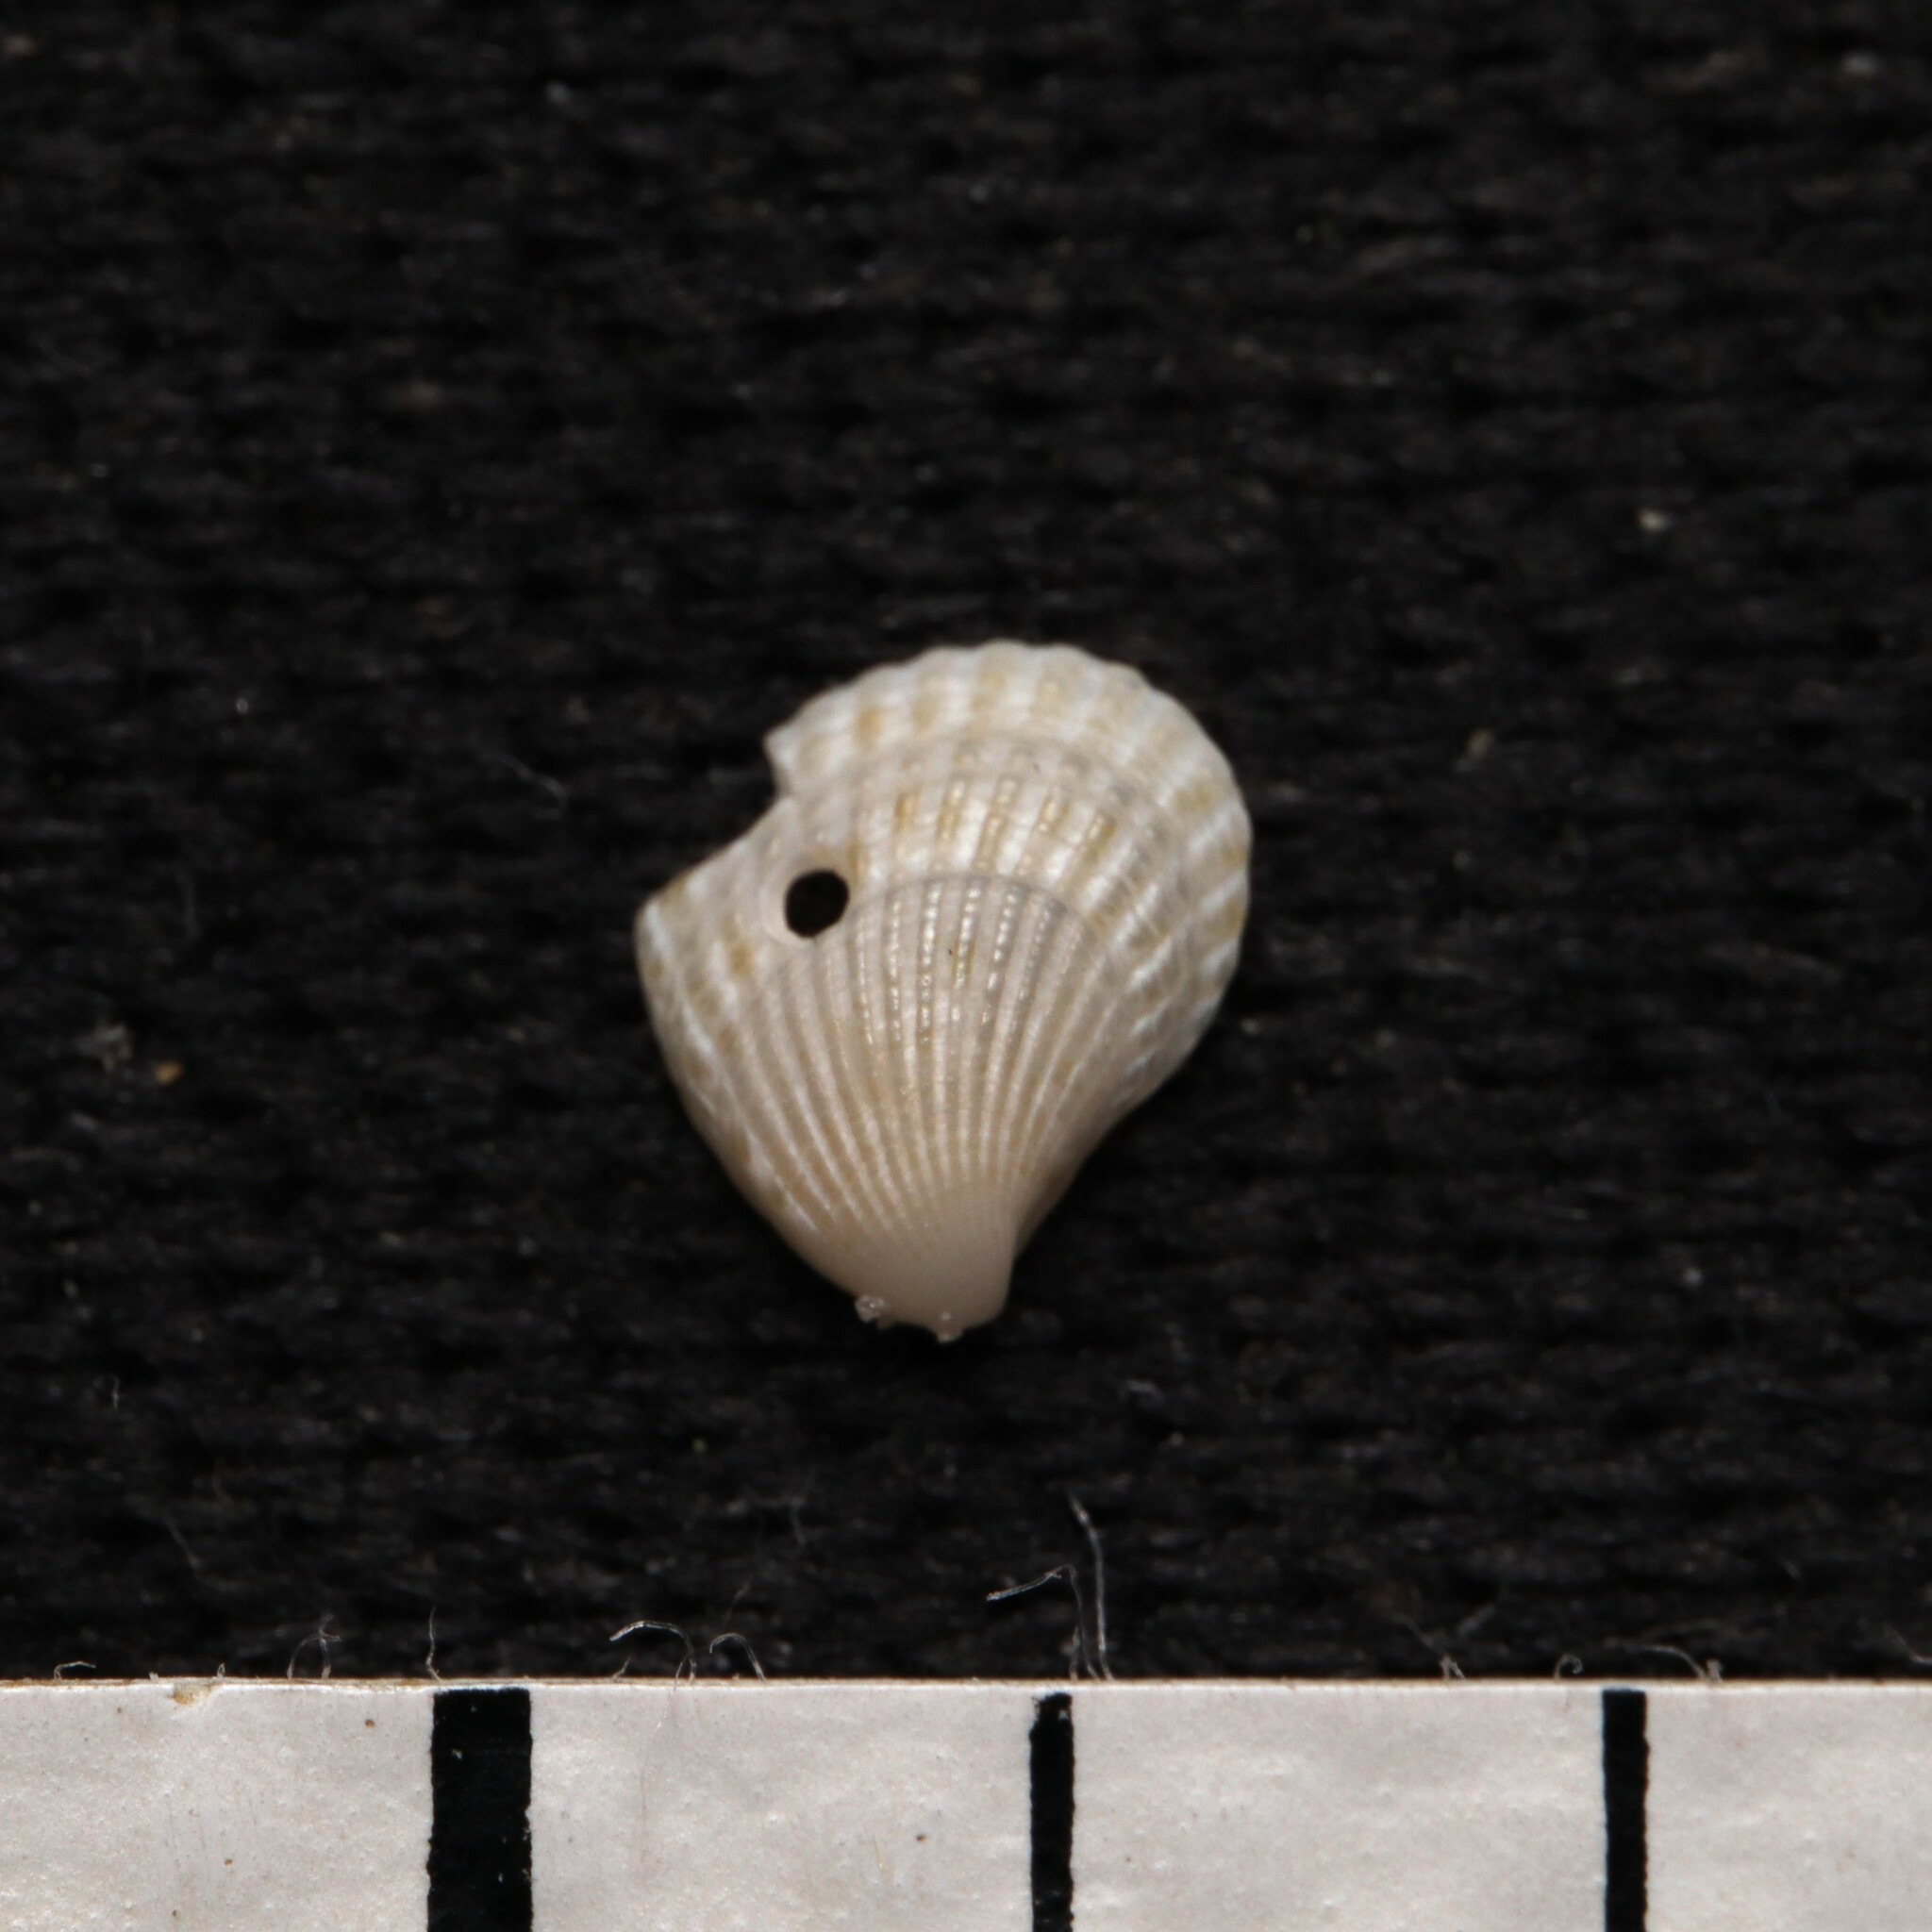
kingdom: Animalia
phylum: Mollusca
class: Bivalvia
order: Carditida
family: Carditidae
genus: Pteromeris
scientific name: Pteromeris perplana
